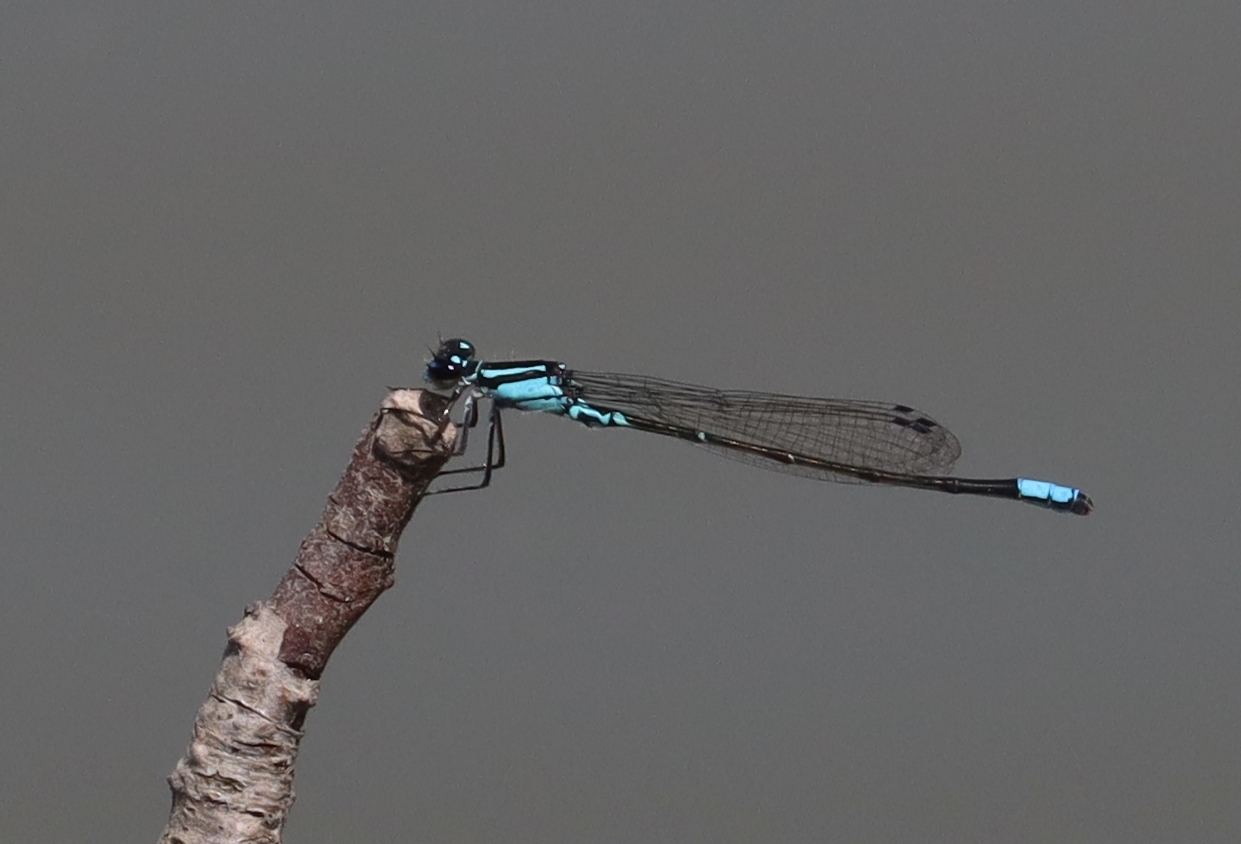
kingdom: Animalia
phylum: Arthropoda
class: Insecta
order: Odonata
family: Coenagrionidae
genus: Enallagma
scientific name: Enallagma geminatum
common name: Skimming bluet
